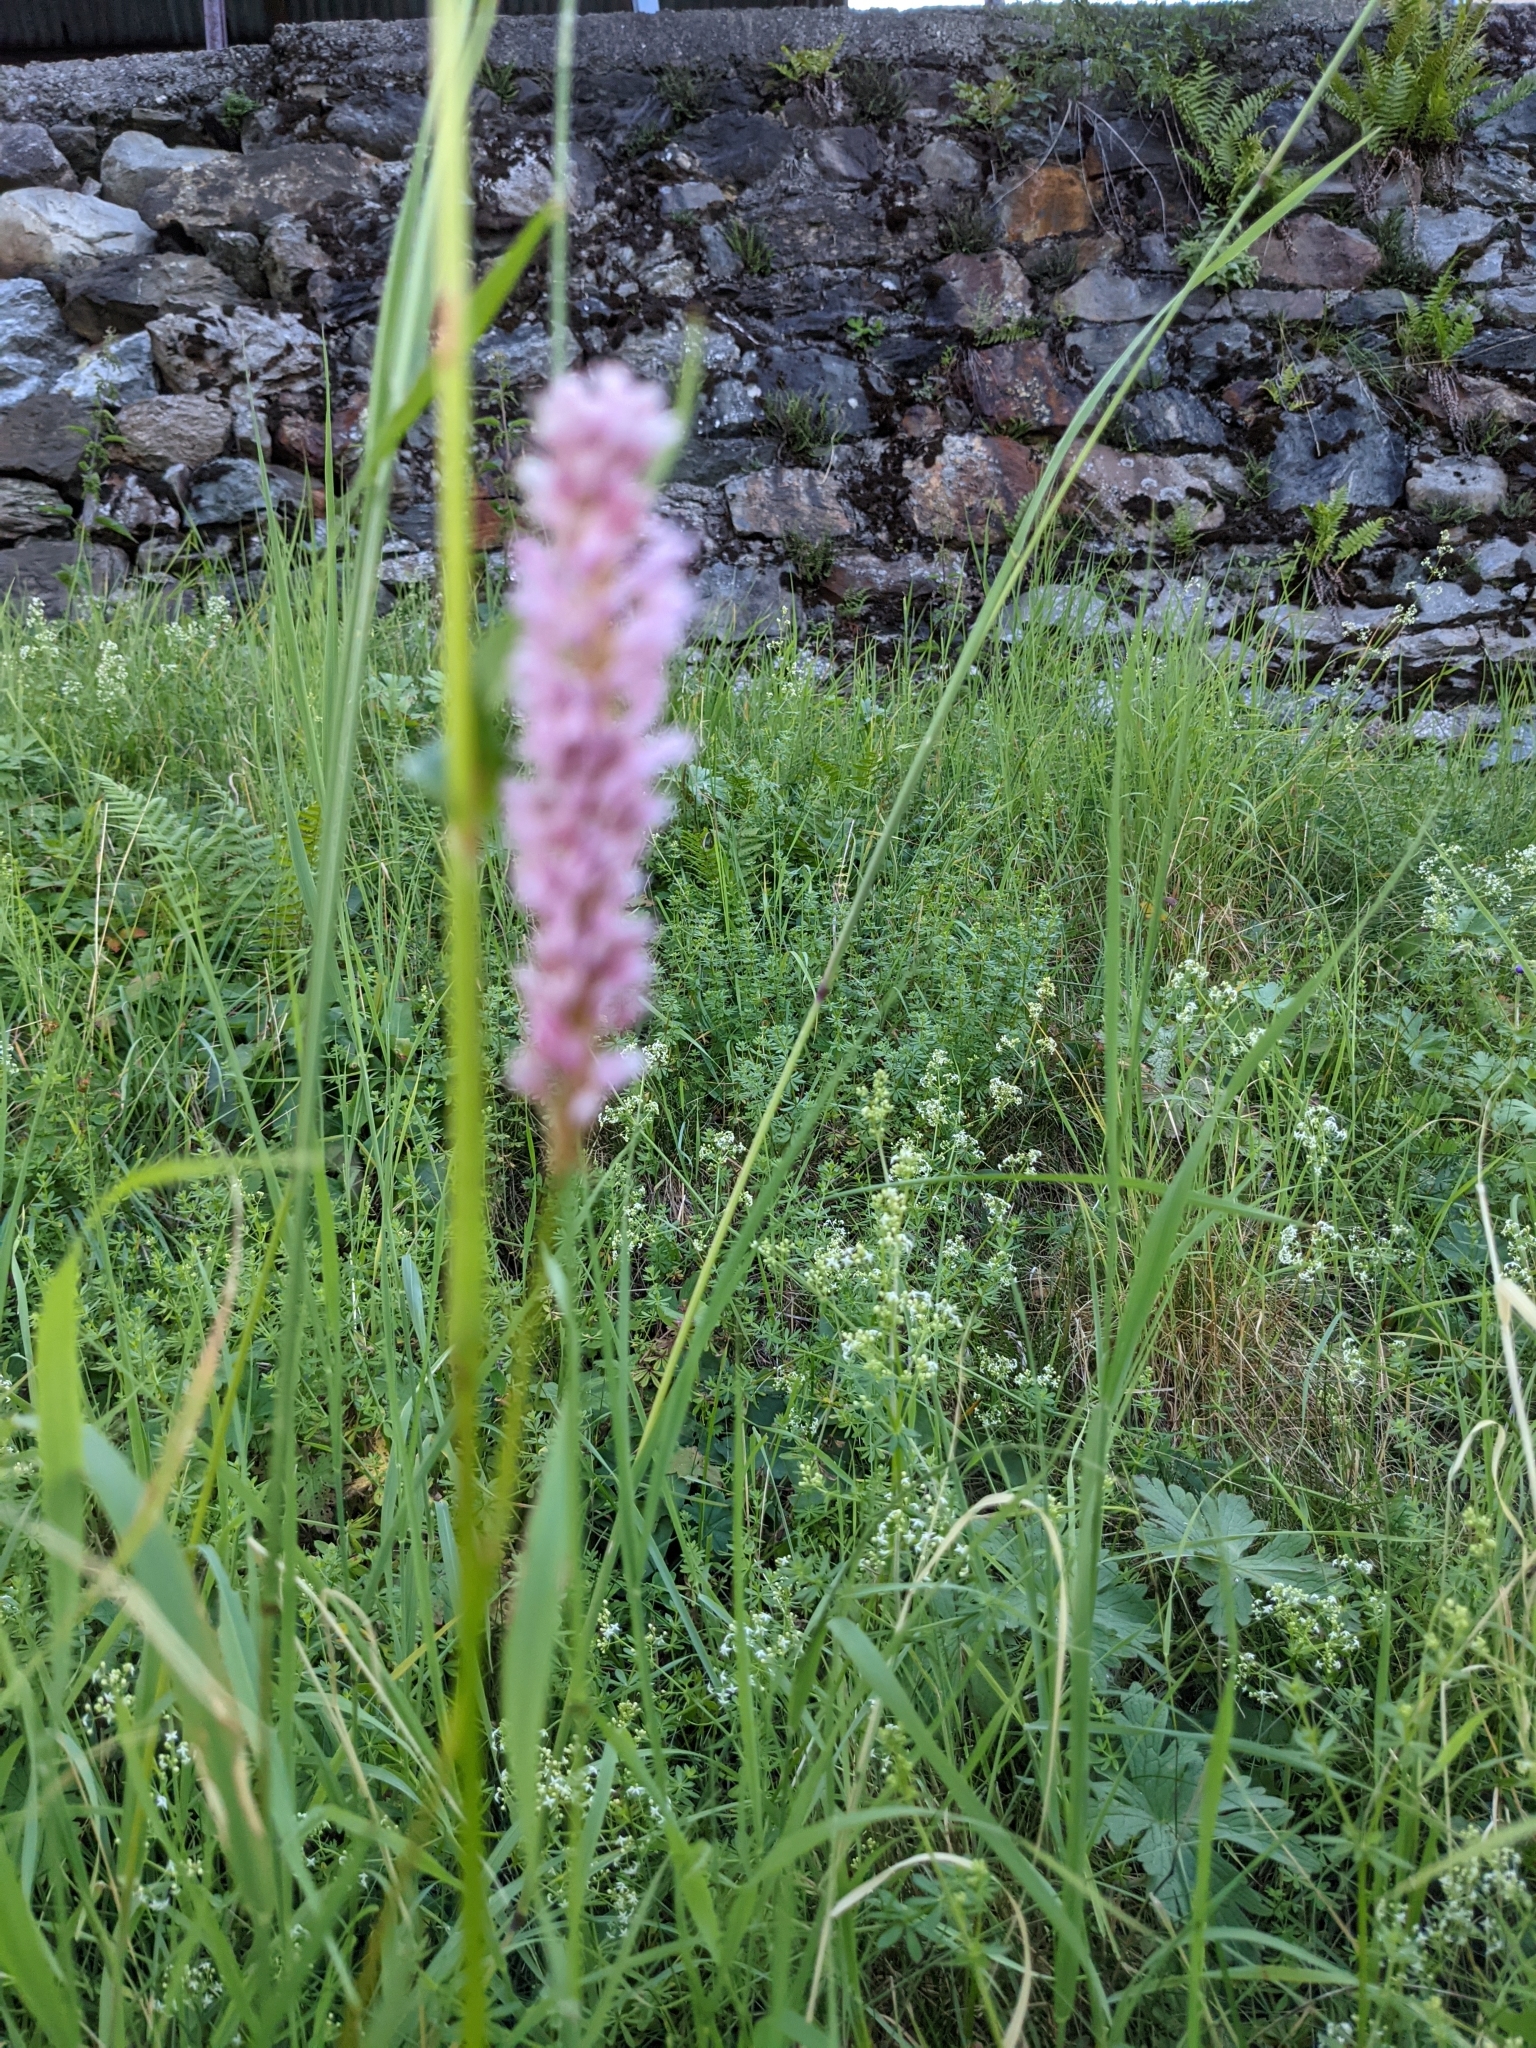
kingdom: Plantae
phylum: Tracheophyta
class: Magnoliopsida
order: Caryophyllales
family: Polygonaceae
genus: Bistorta
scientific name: Bistorta officinalis
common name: Common bistort
